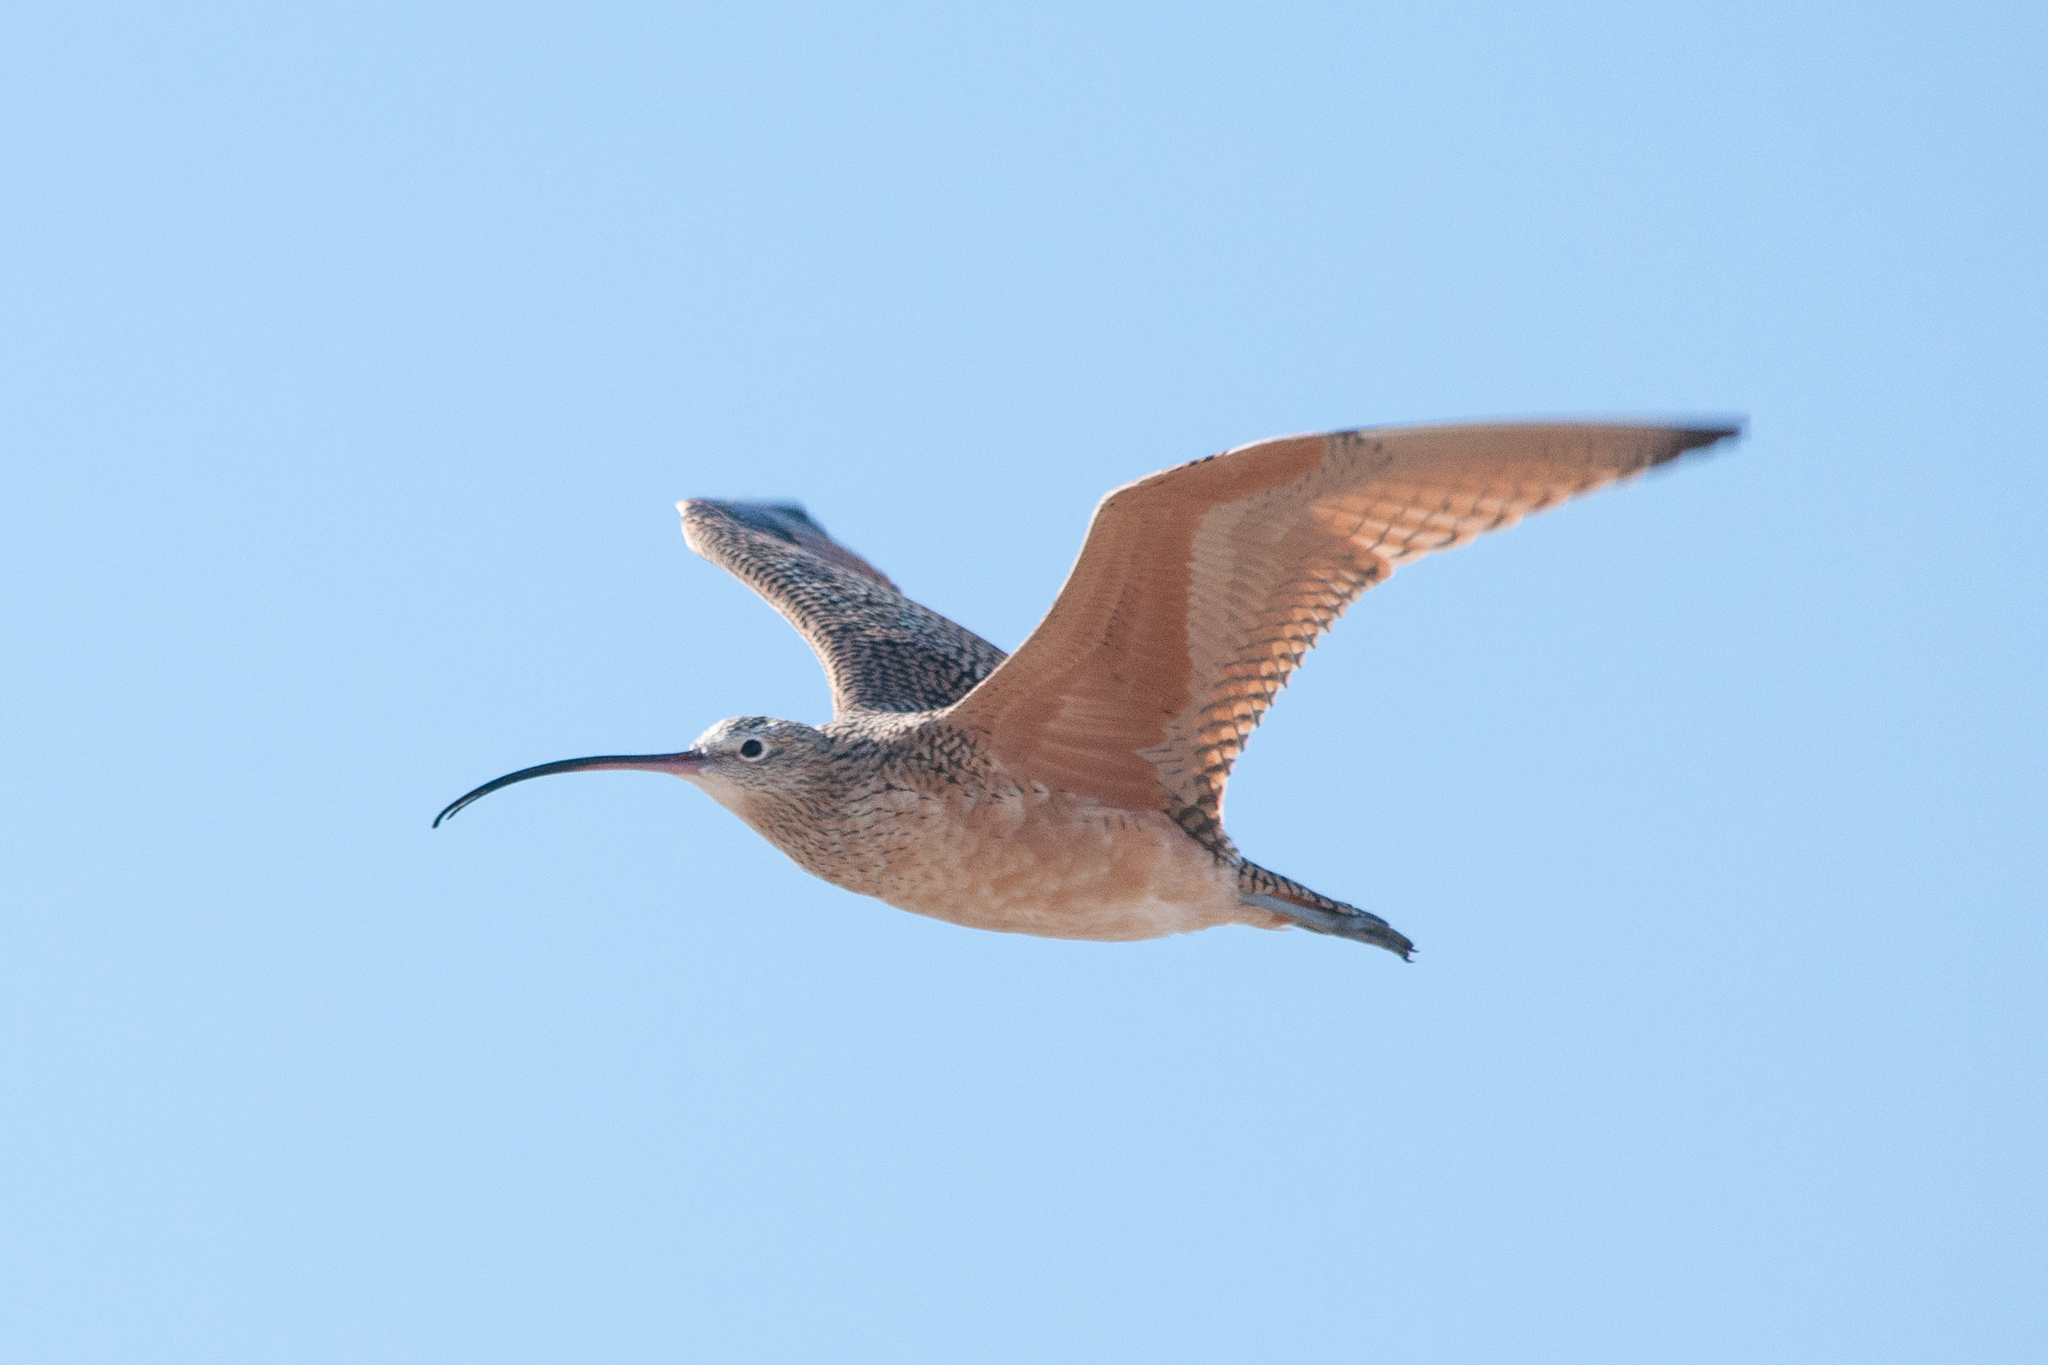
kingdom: Animalia
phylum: Chordata
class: Aves
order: Charadriiformes
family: Scolopacidae
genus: Numenius
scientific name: Numenius americanus
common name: Long-billed curlew
